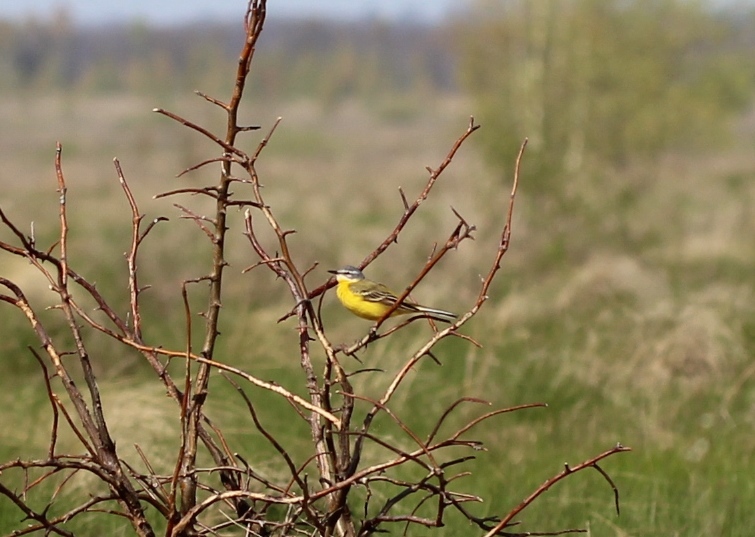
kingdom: Animalia
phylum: Chordata
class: Aves
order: Passeriformes
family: Motacillidae
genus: Motacilla
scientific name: Motacilla flava
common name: Western yellow wagtail
